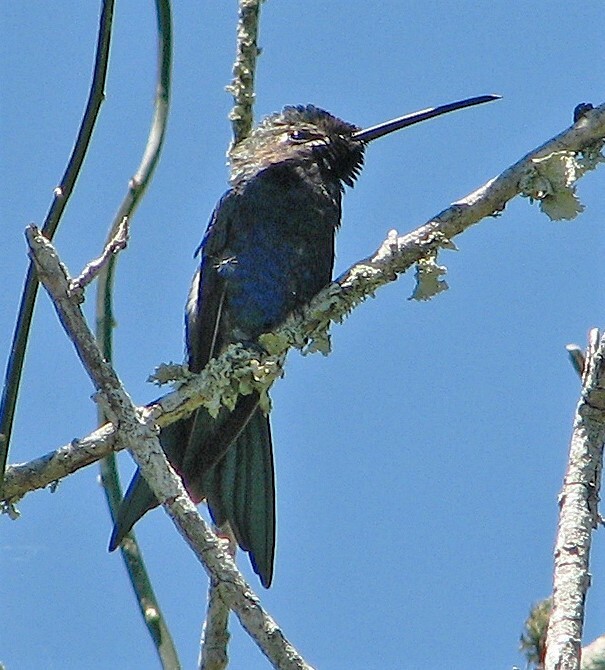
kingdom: Animalia
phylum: Chordata
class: Aves
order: Apodiformes
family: Trochilidae
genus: Heliomaster
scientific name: Heliomaster furcifer
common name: Blue-tufted starthroat
